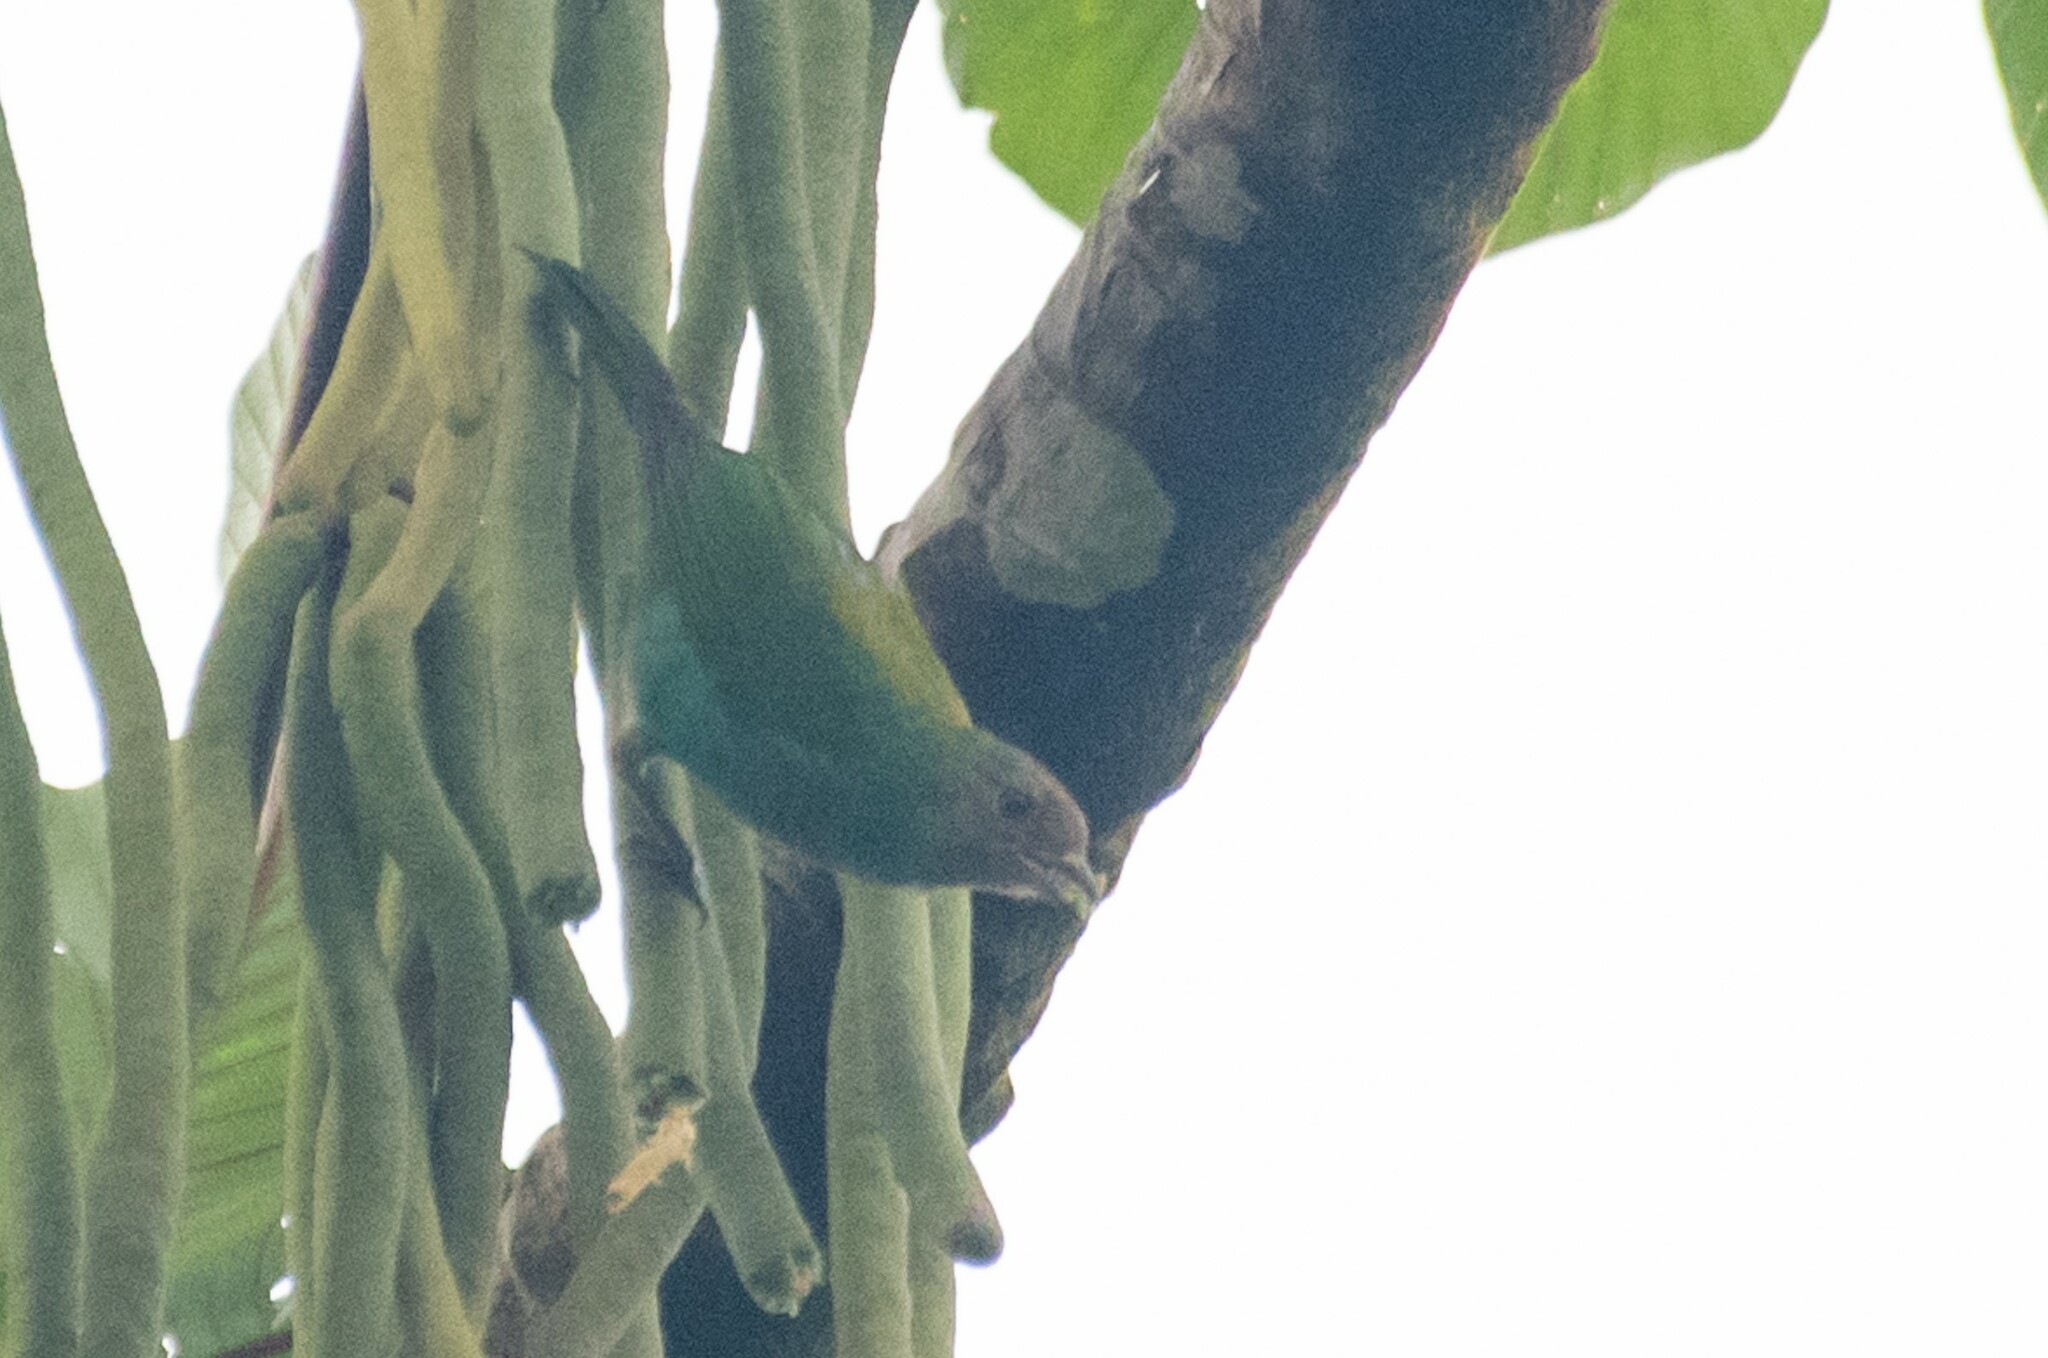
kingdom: Animalia
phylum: Chordata
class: Aves
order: Passeriformes
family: Thraupidae
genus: Tangara
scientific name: Tangara gyrola
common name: Bay-headed tanager
